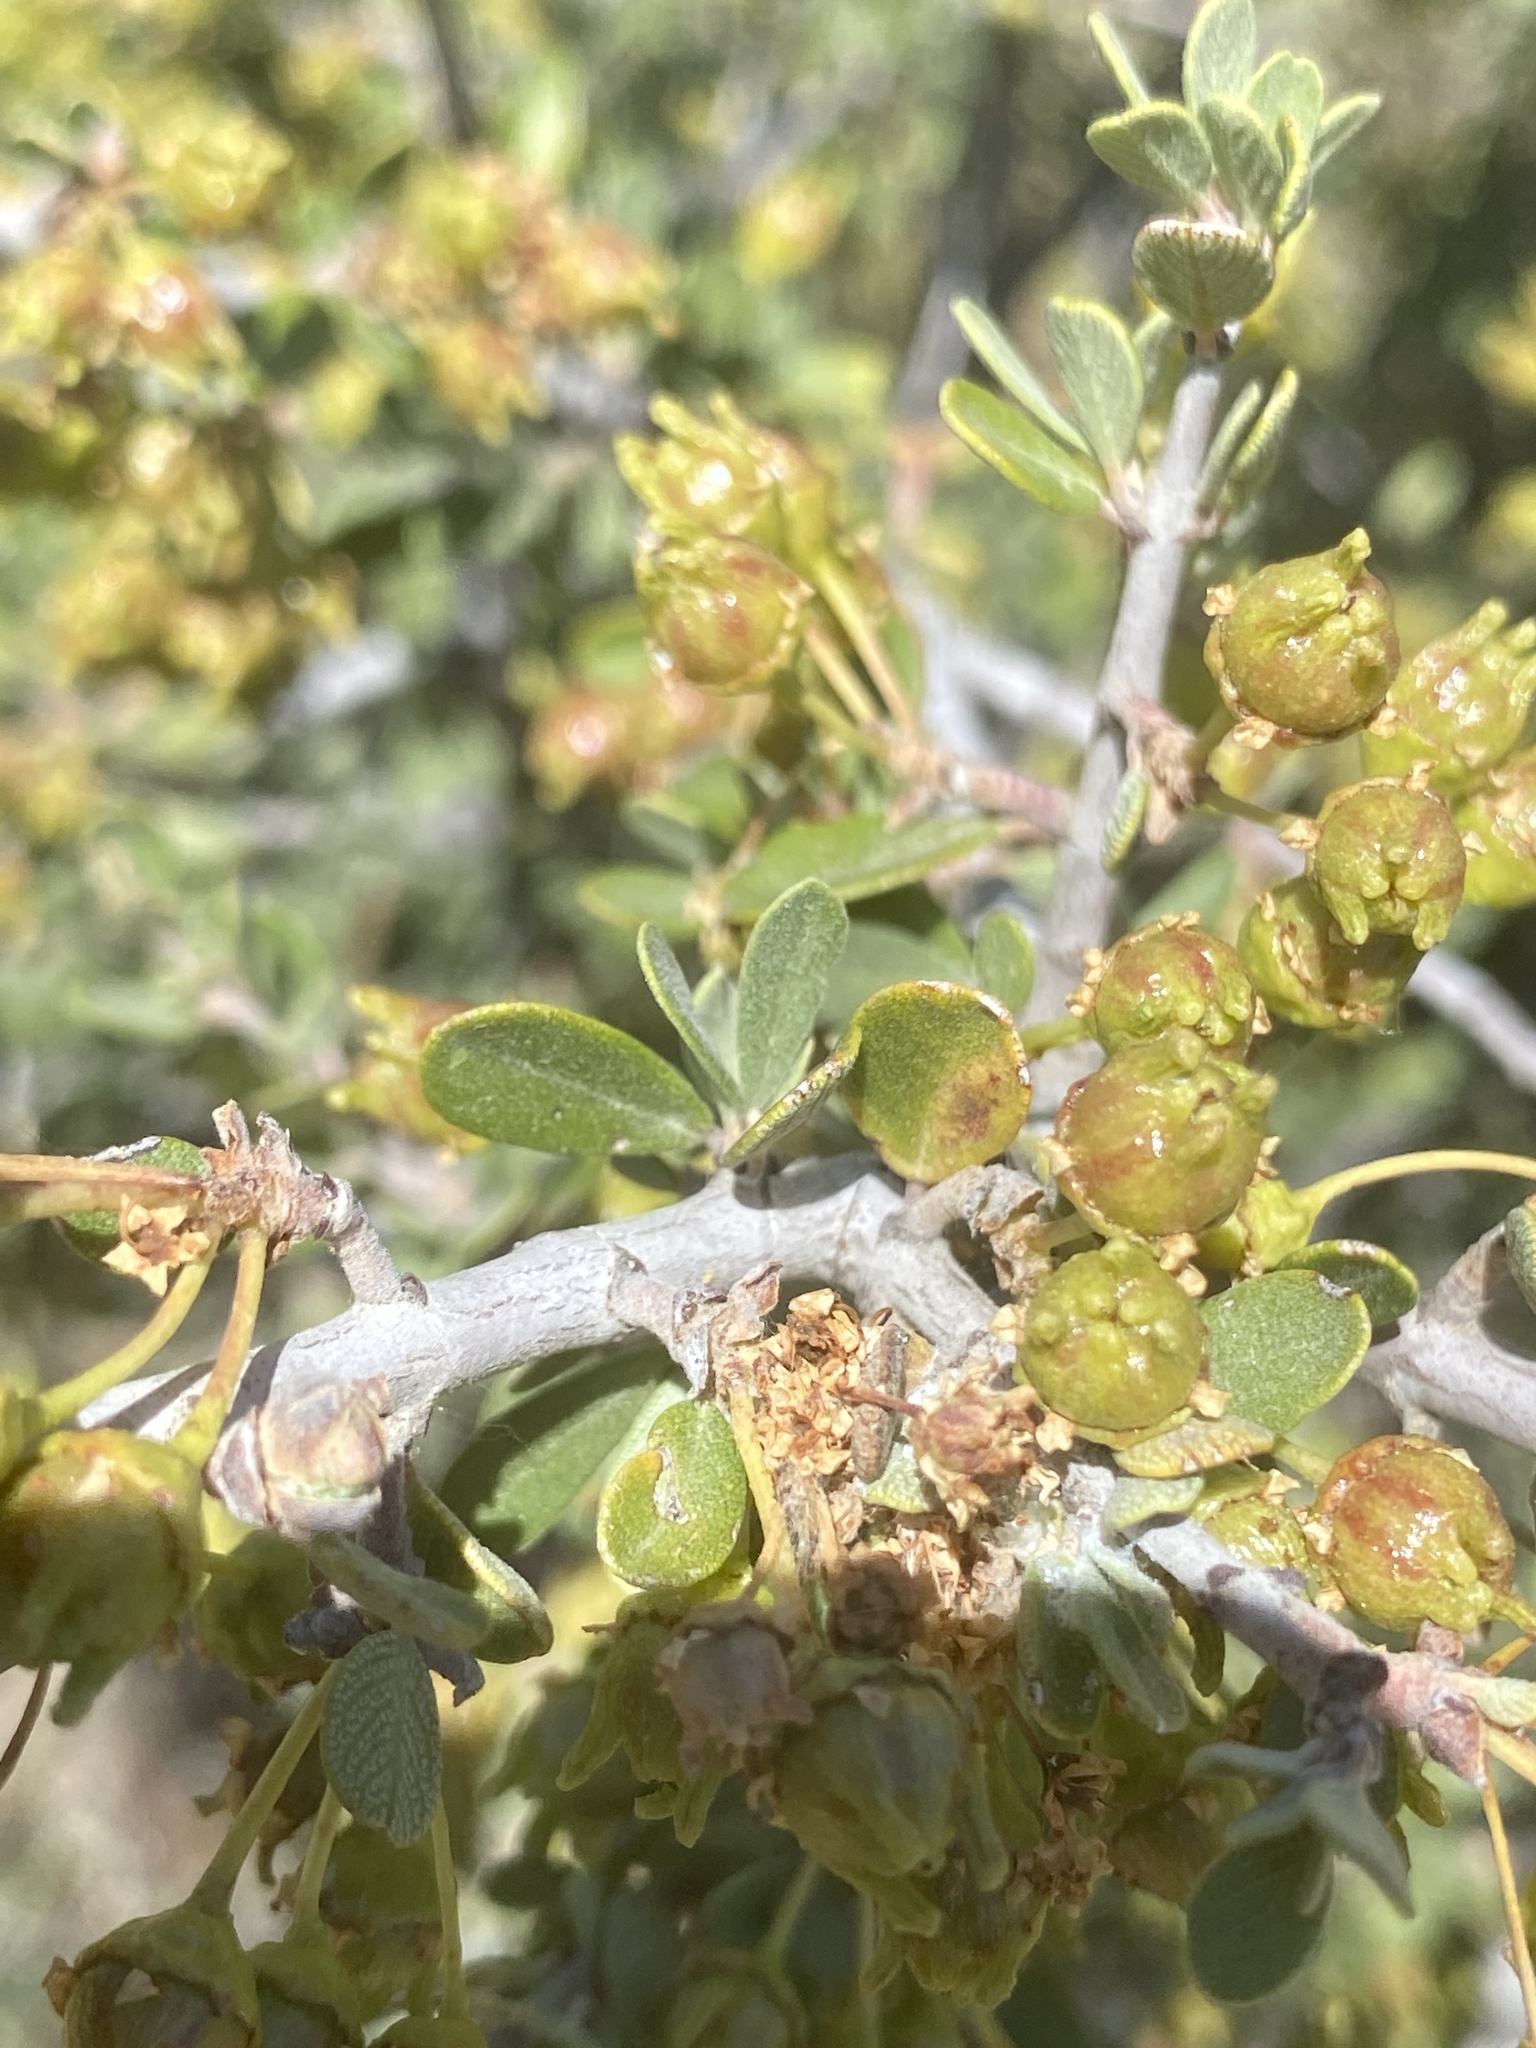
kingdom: Plantae
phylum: Tracheophyta
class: Magnoliopsida
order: Rosales
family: Rhamnaceae
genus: Ceanothus
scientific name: Ceanothus pauciflorus
